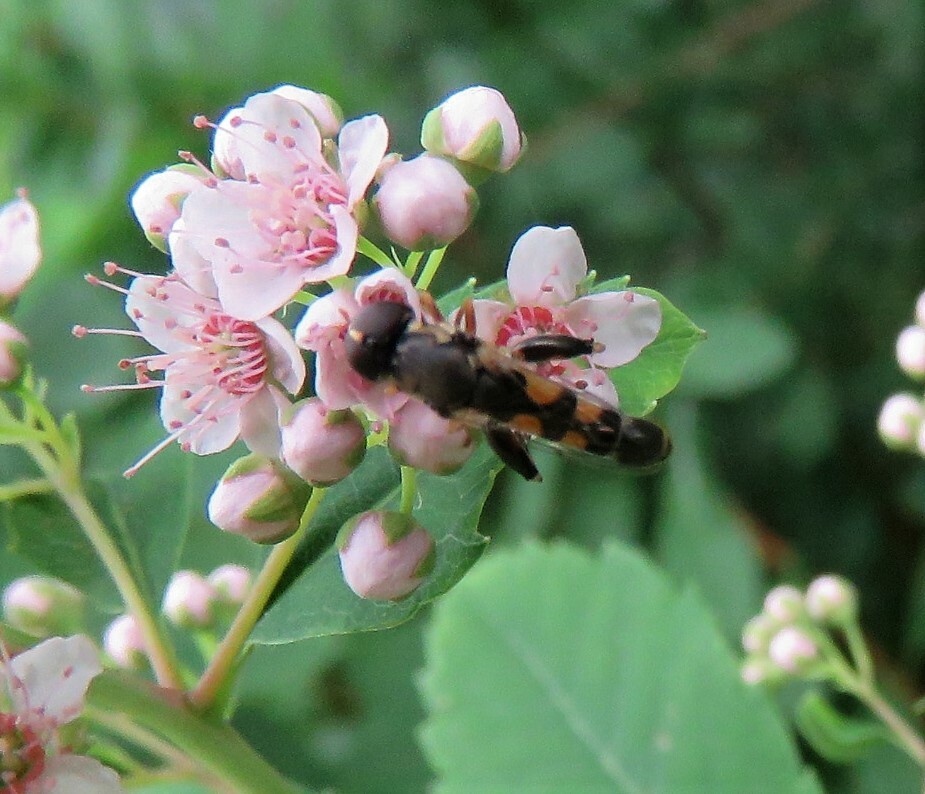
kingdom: Animalia
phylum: Arthropoda
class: Insecta
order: Diptera
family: Syrphidae
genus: Syritta
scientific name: Syritta pipiens
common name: Hover fly
